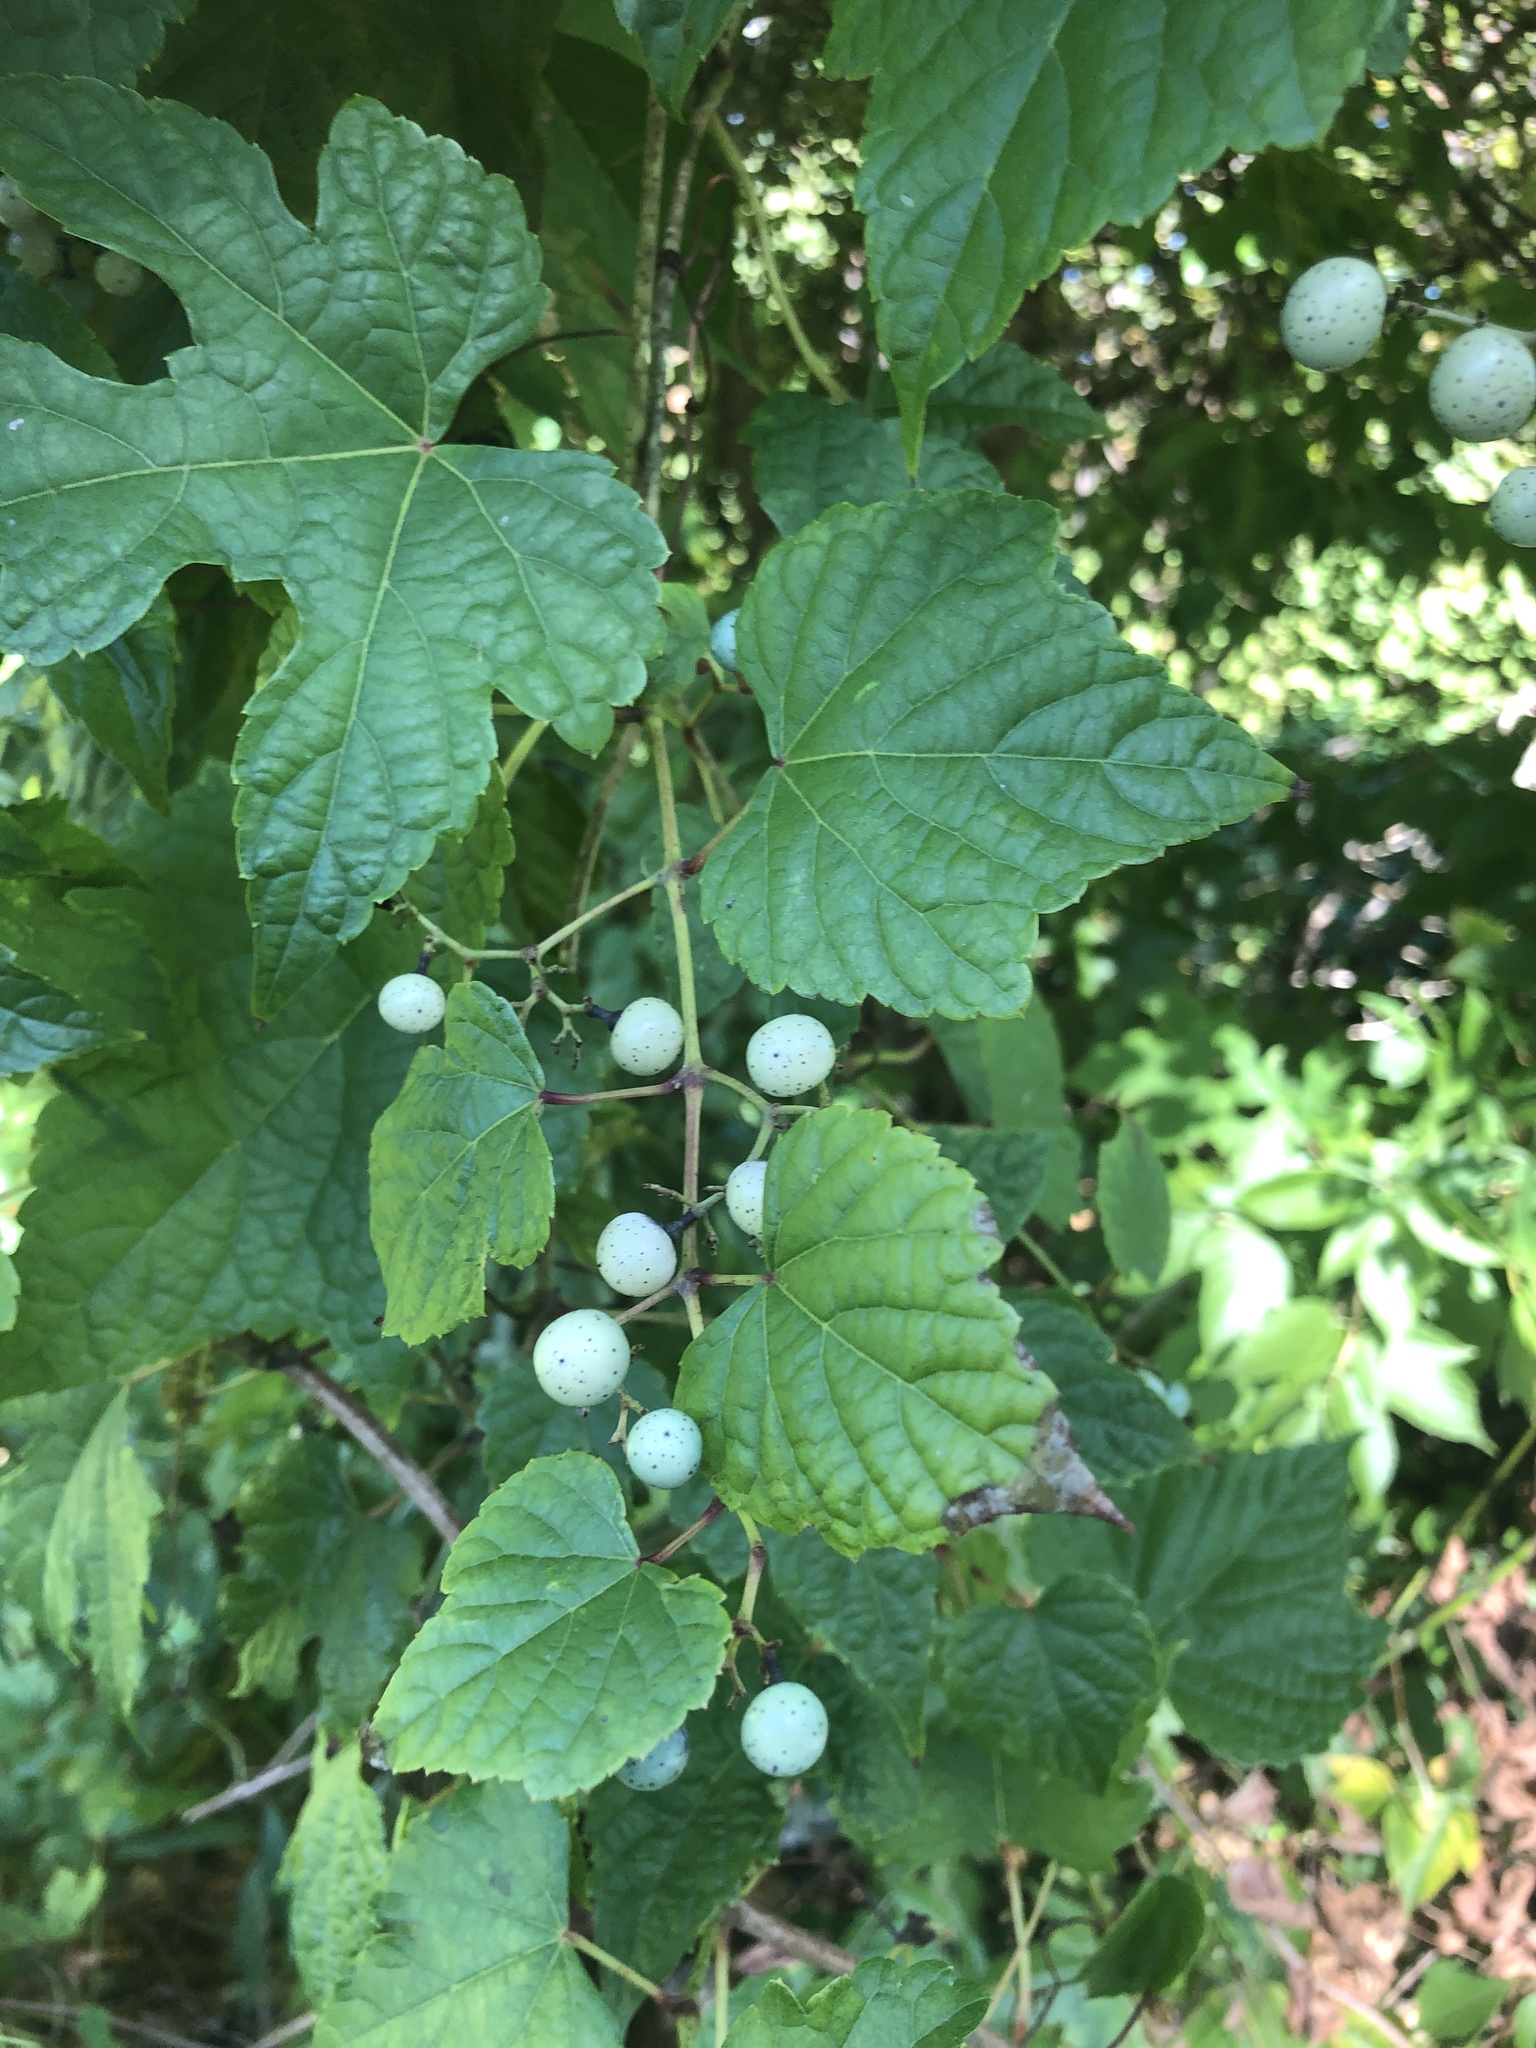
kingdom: Plantae
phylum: Tracheophyta
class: Magnoliopsida
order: Vitales
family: Vitaceae
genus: Ampelopsis
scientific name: Ampelopsis glandulosa
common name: Amur peppervine
